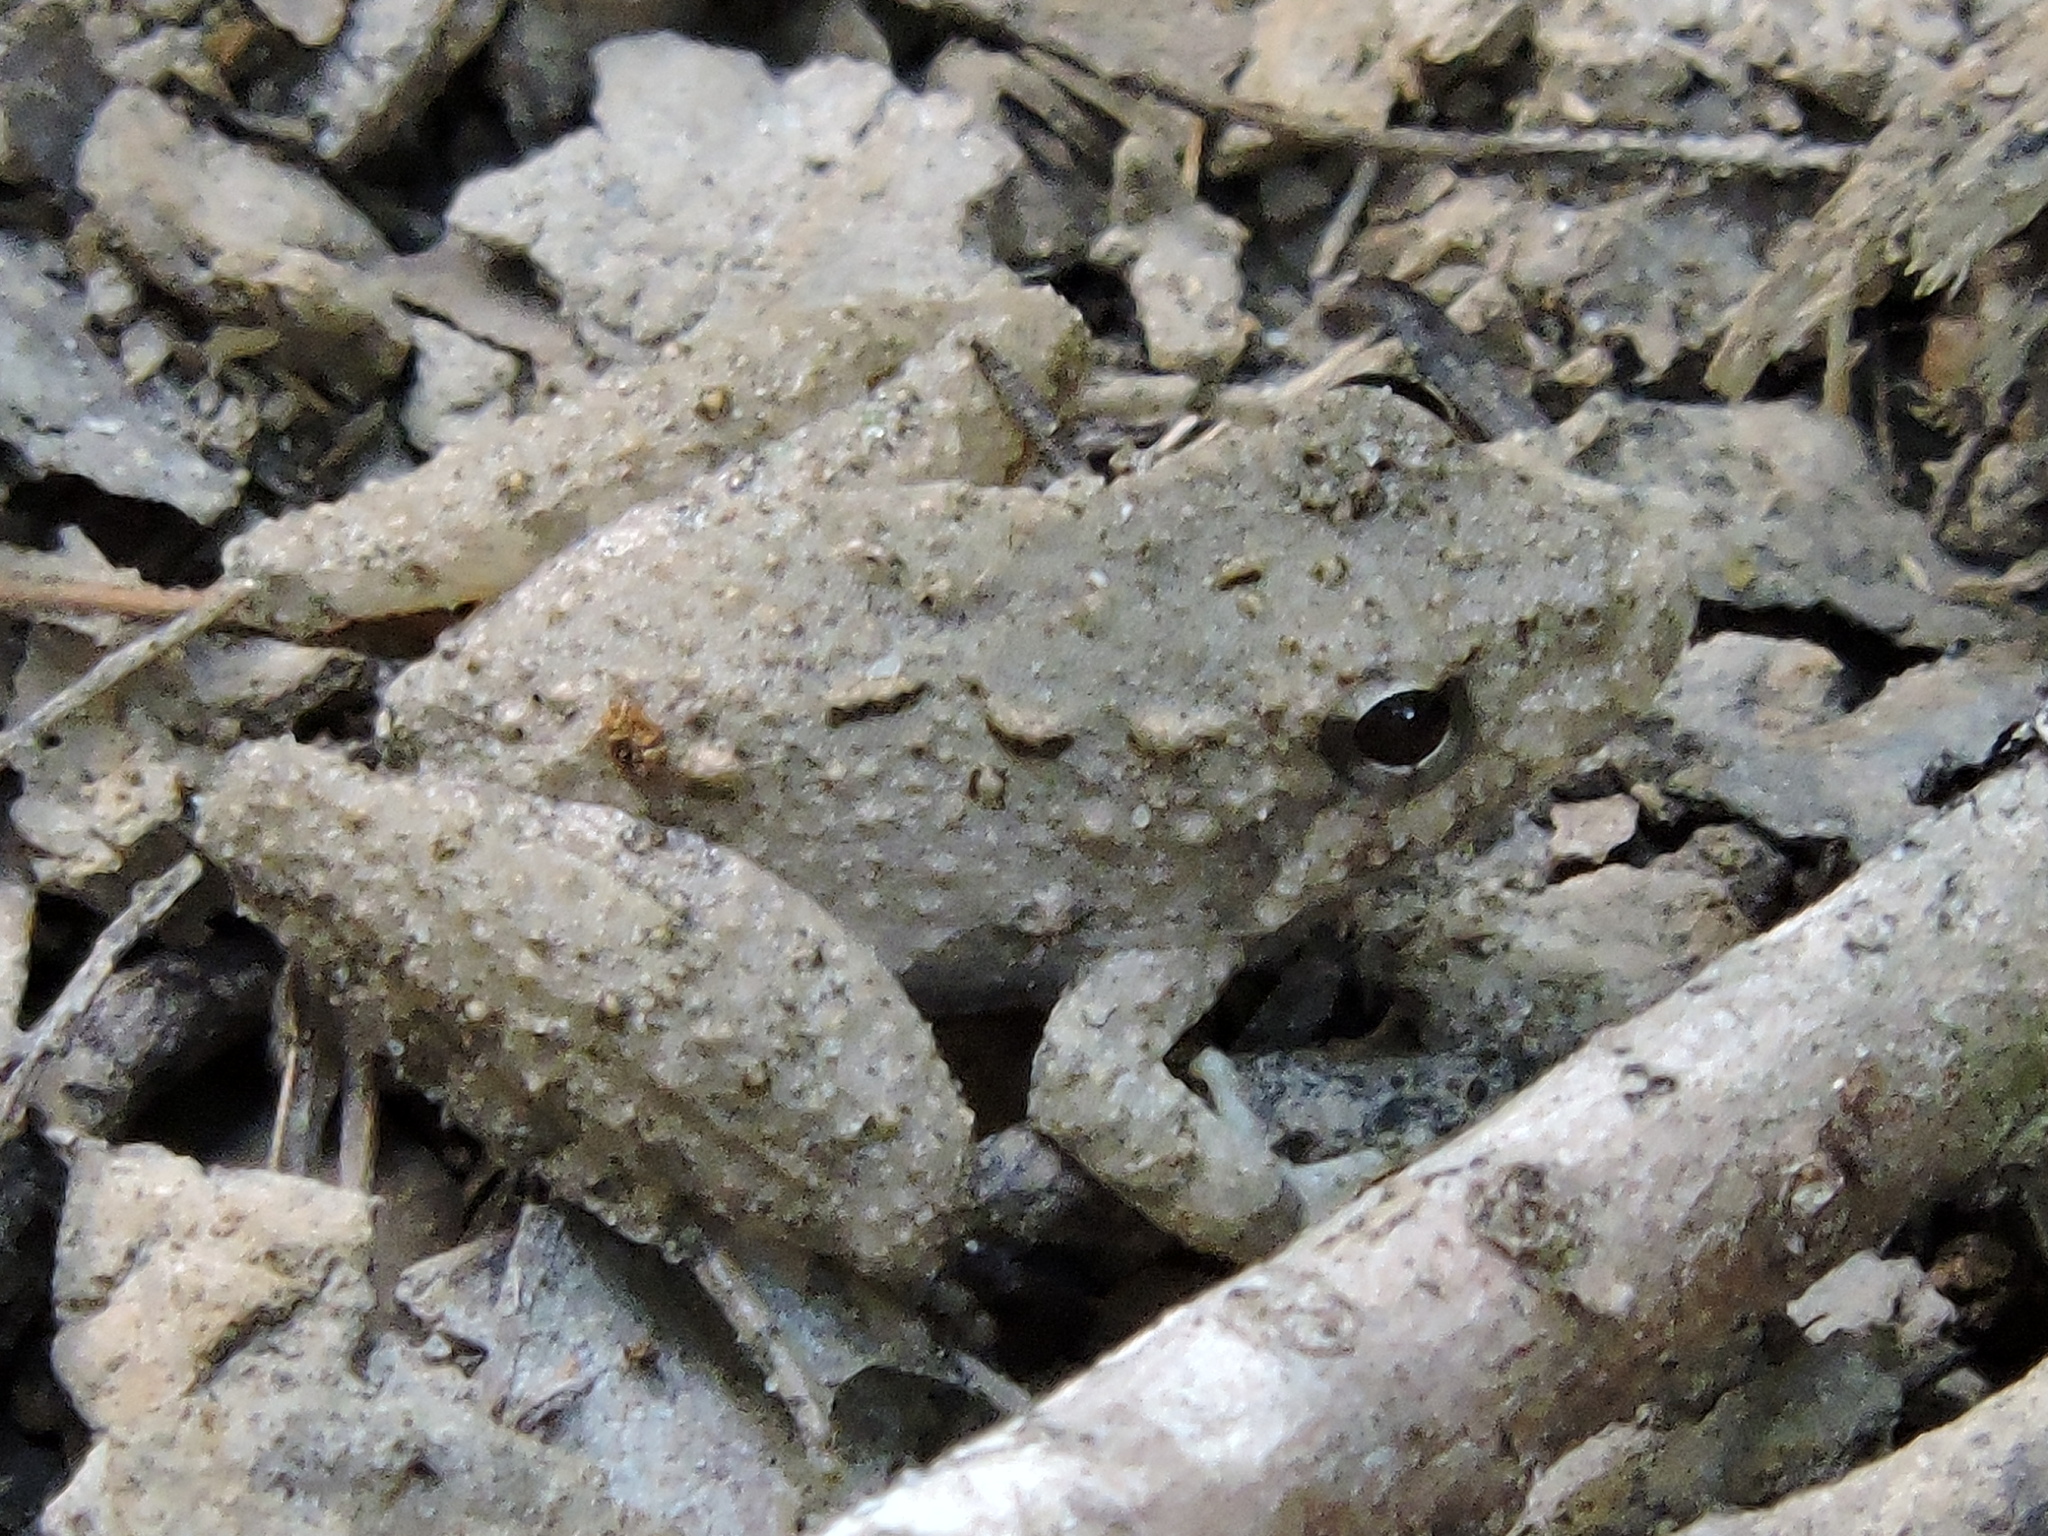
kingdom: Animalia
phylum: Chordata
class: Amphibia
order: Anura
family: Hylidae
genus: Acris
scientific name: Acris blanchardi
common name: Blanchard's cricket frog
